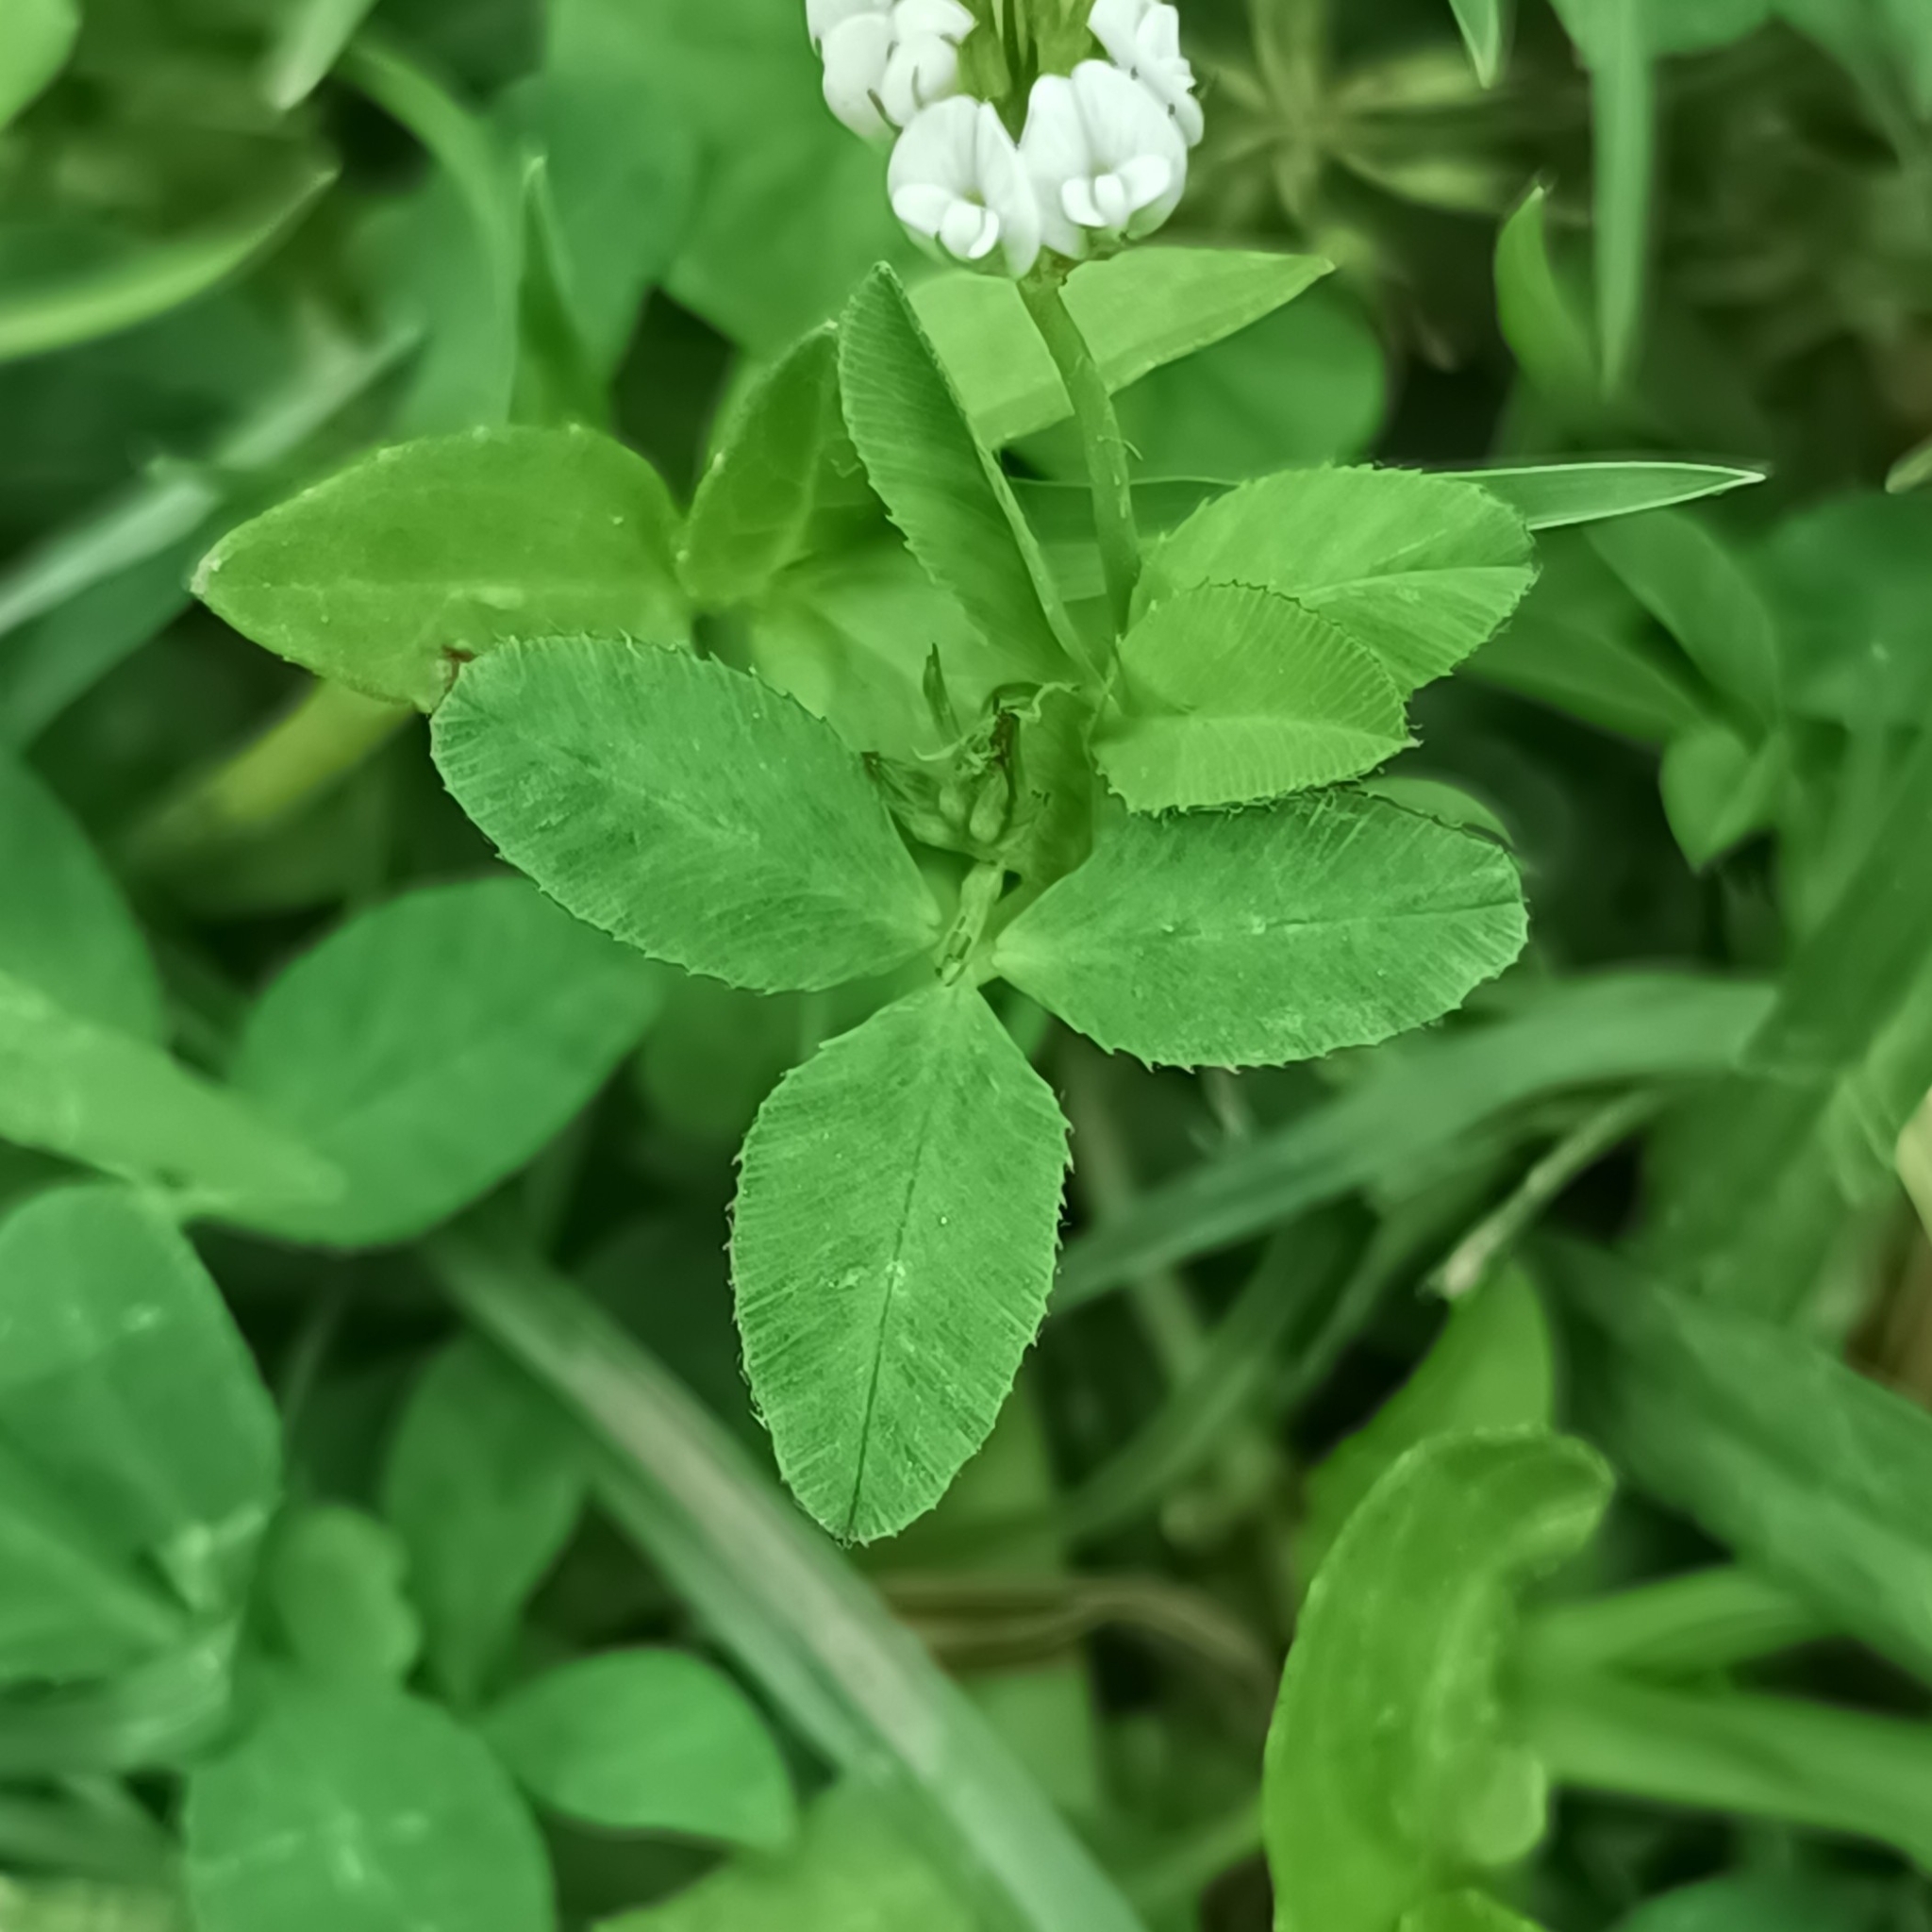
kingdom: Plantae
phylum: Tracheophyta
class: Magnoliopsida
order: Fabales
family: Fabaceae
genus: Trifolium
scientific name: Trifolium amabile
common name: Aztec clover
